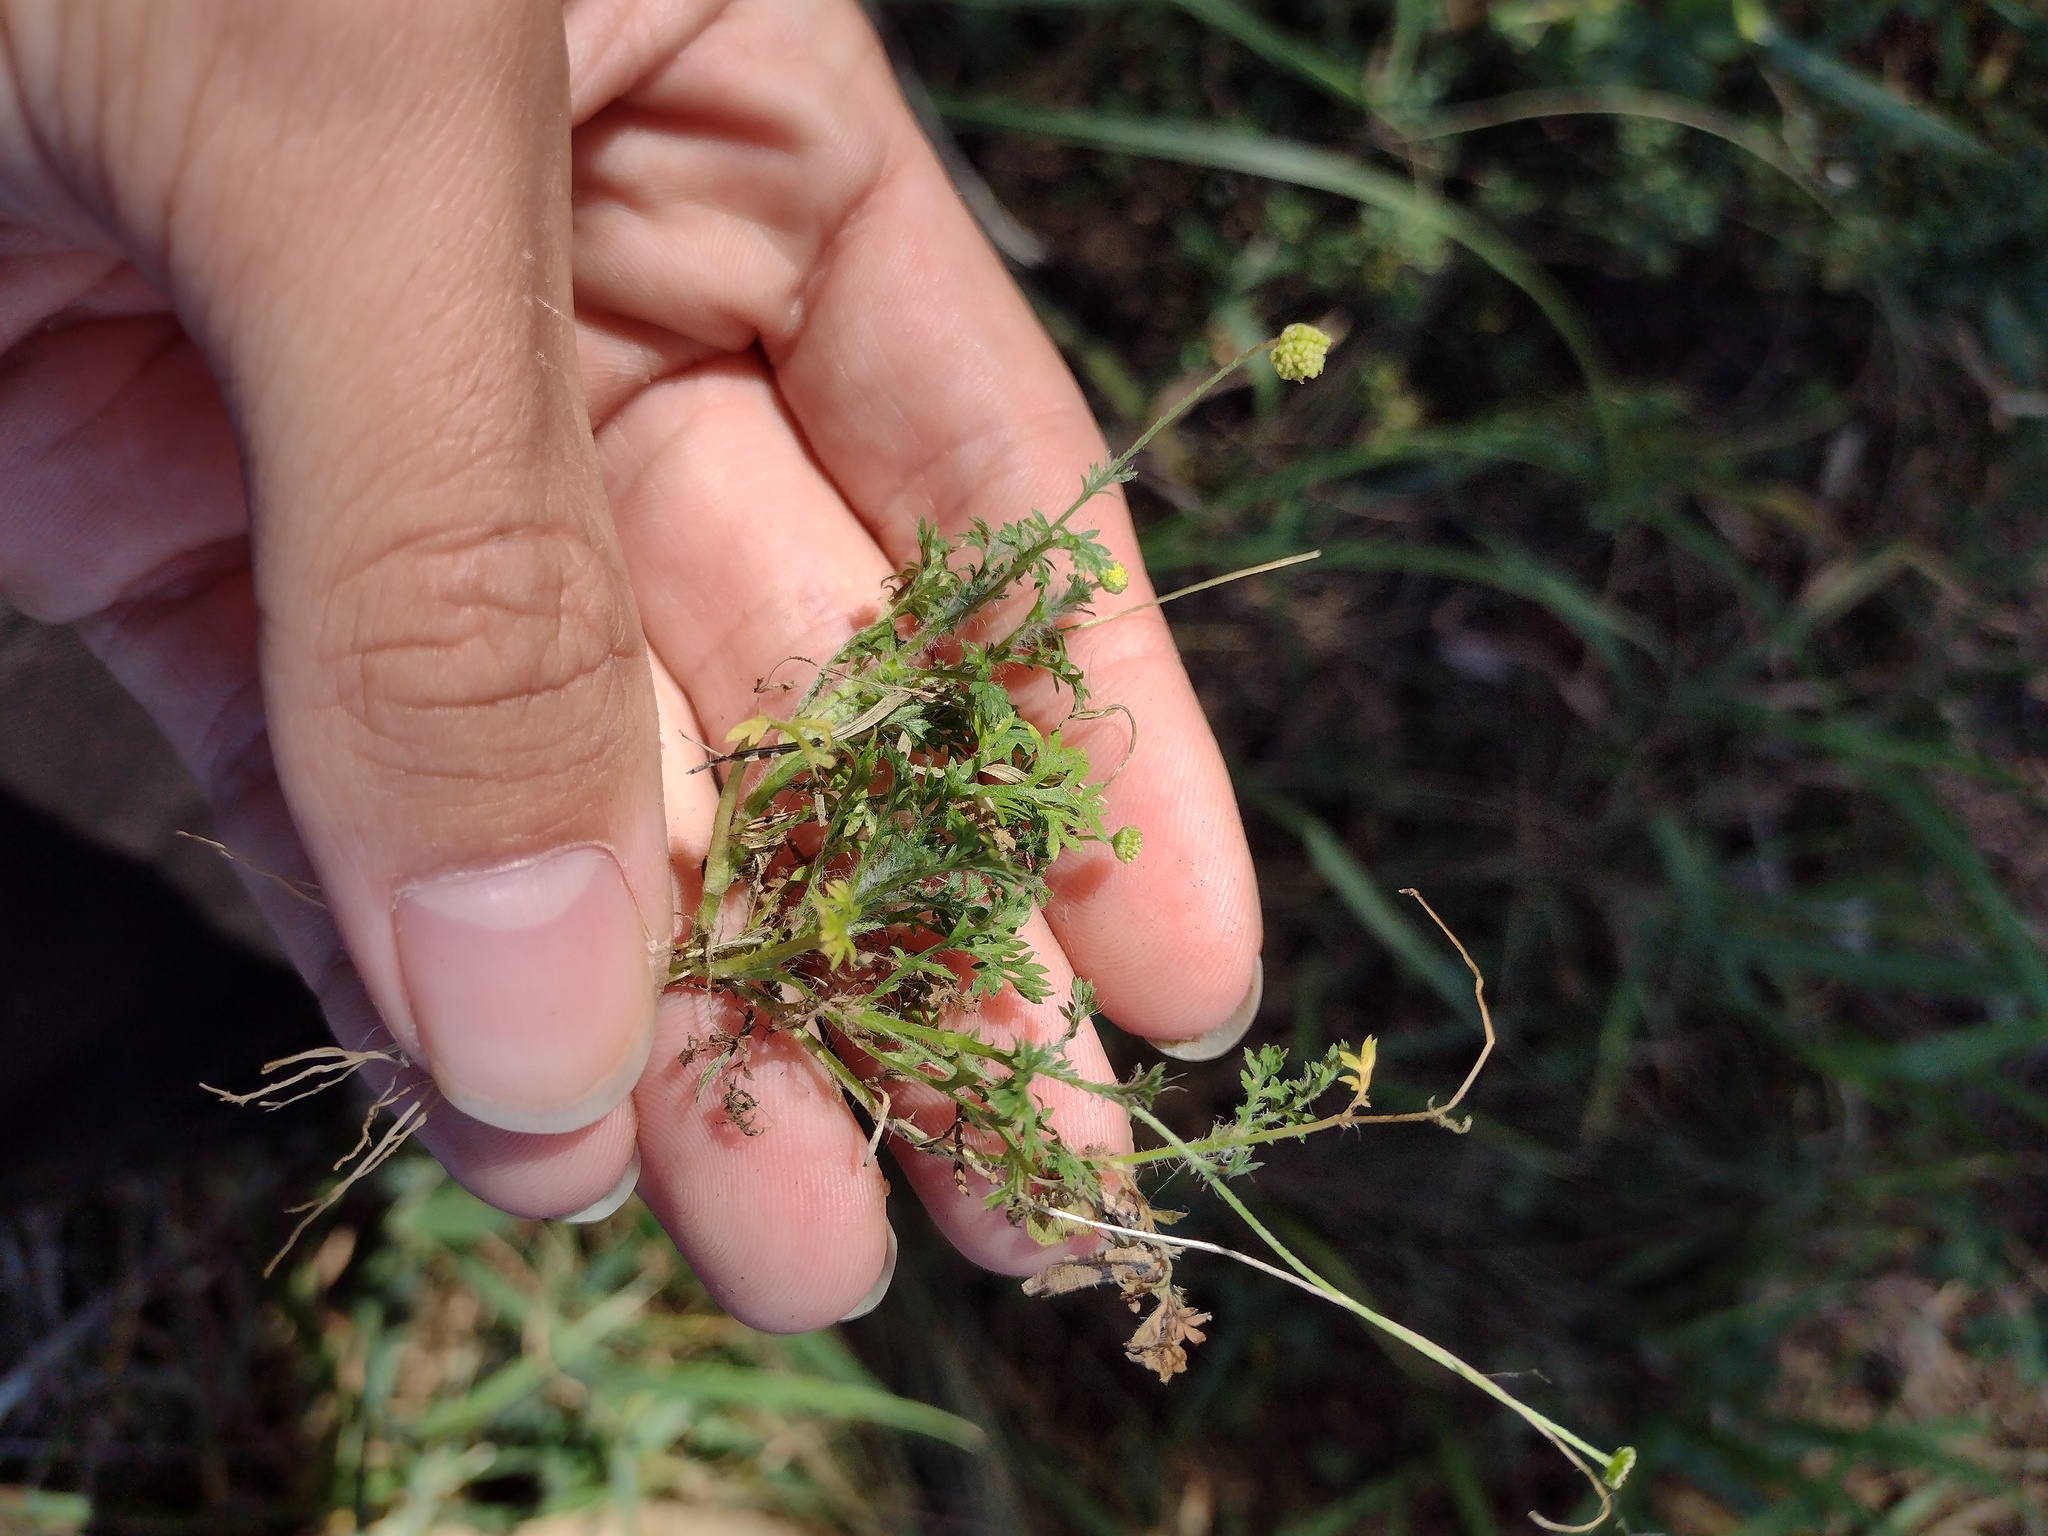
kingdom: Plantae
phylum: Tracheophyta
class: Magnoliopsida
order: Asterales
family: Asteraceae
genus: Cotula
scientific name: Cotula australis
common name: Australian waterbuttons
